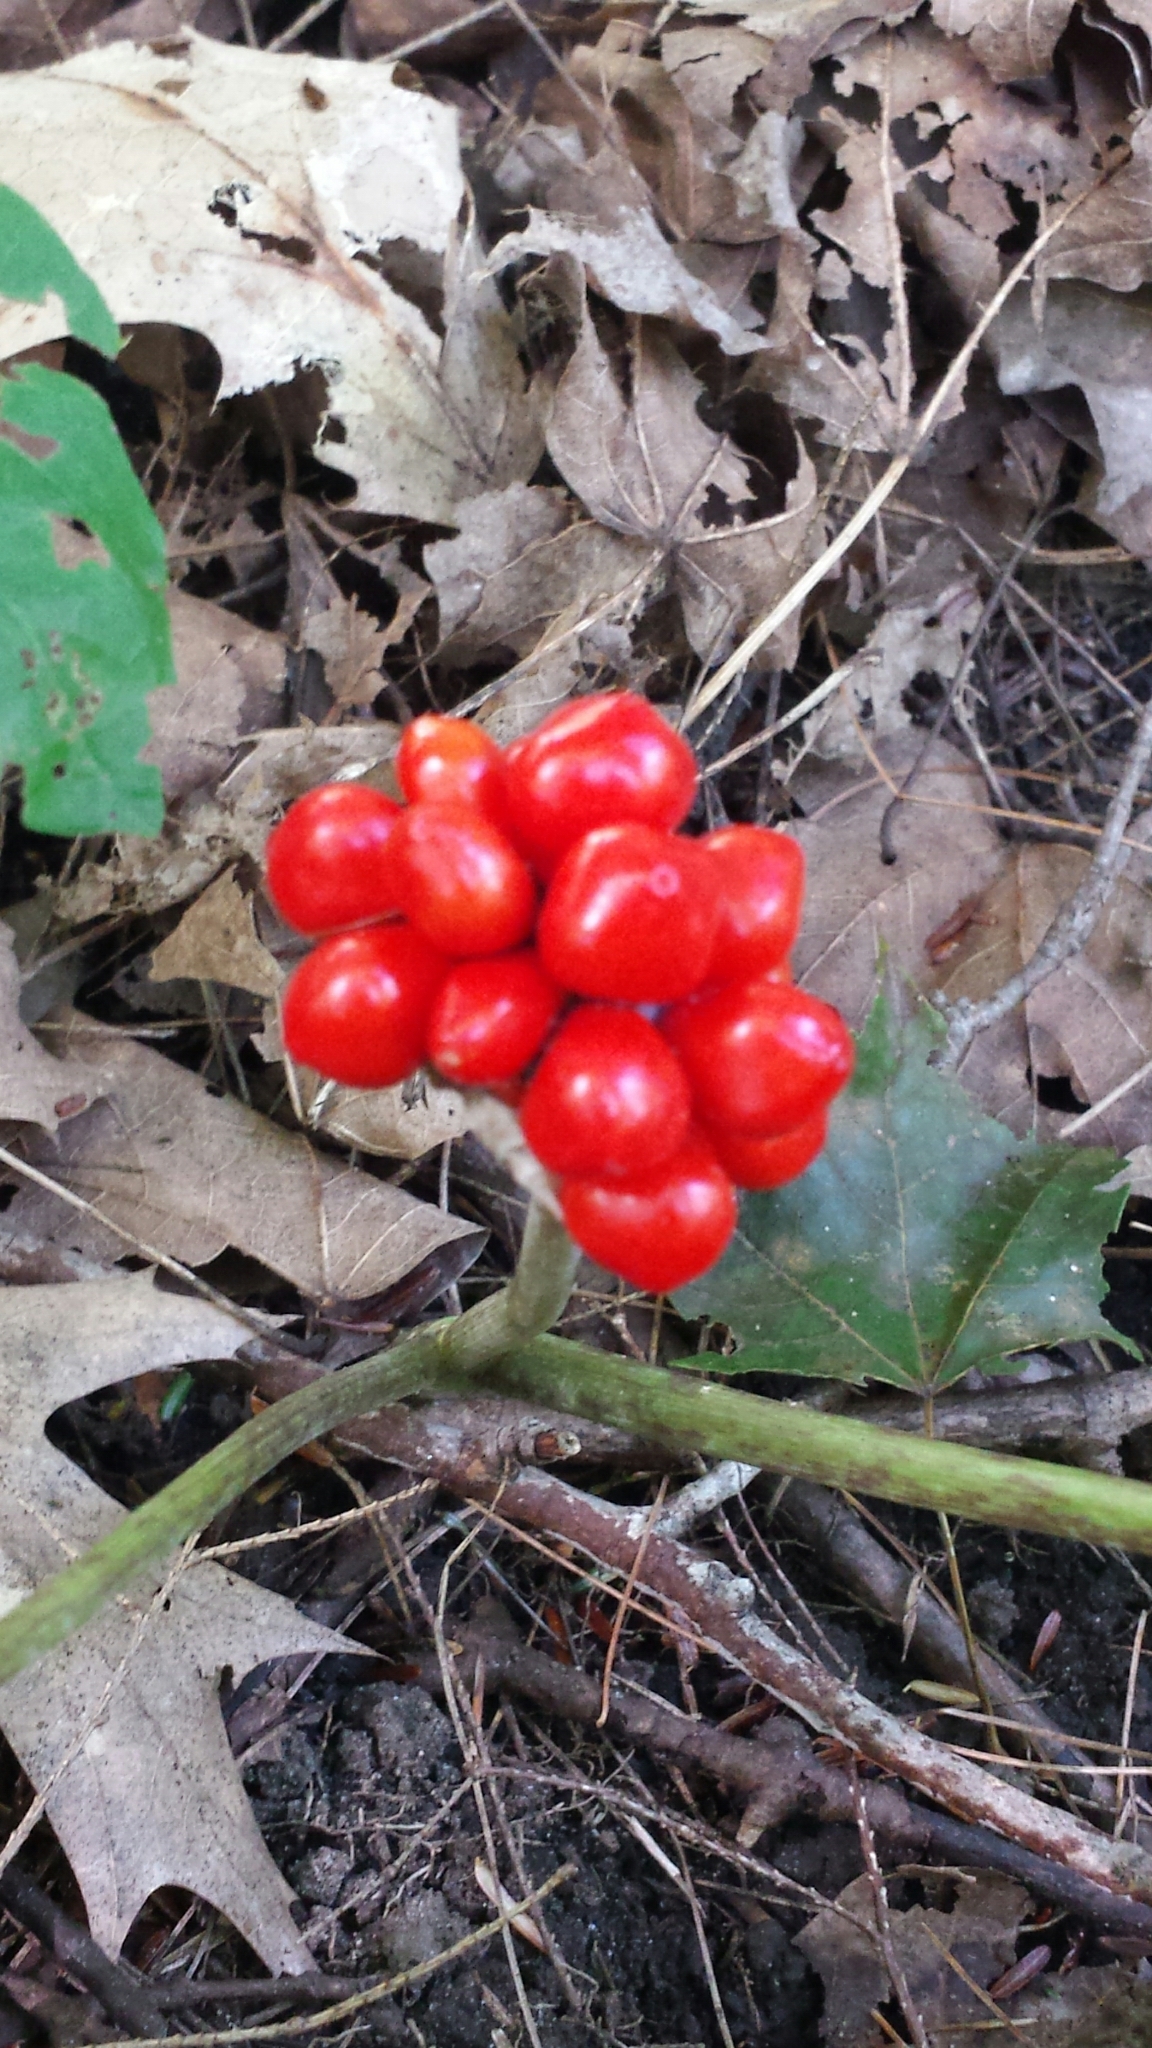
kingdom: Plantae
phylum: Tracheophyta
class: Liliopsida
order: Alismatales
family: Araceae
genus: Arisaema
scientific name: Arisaema
